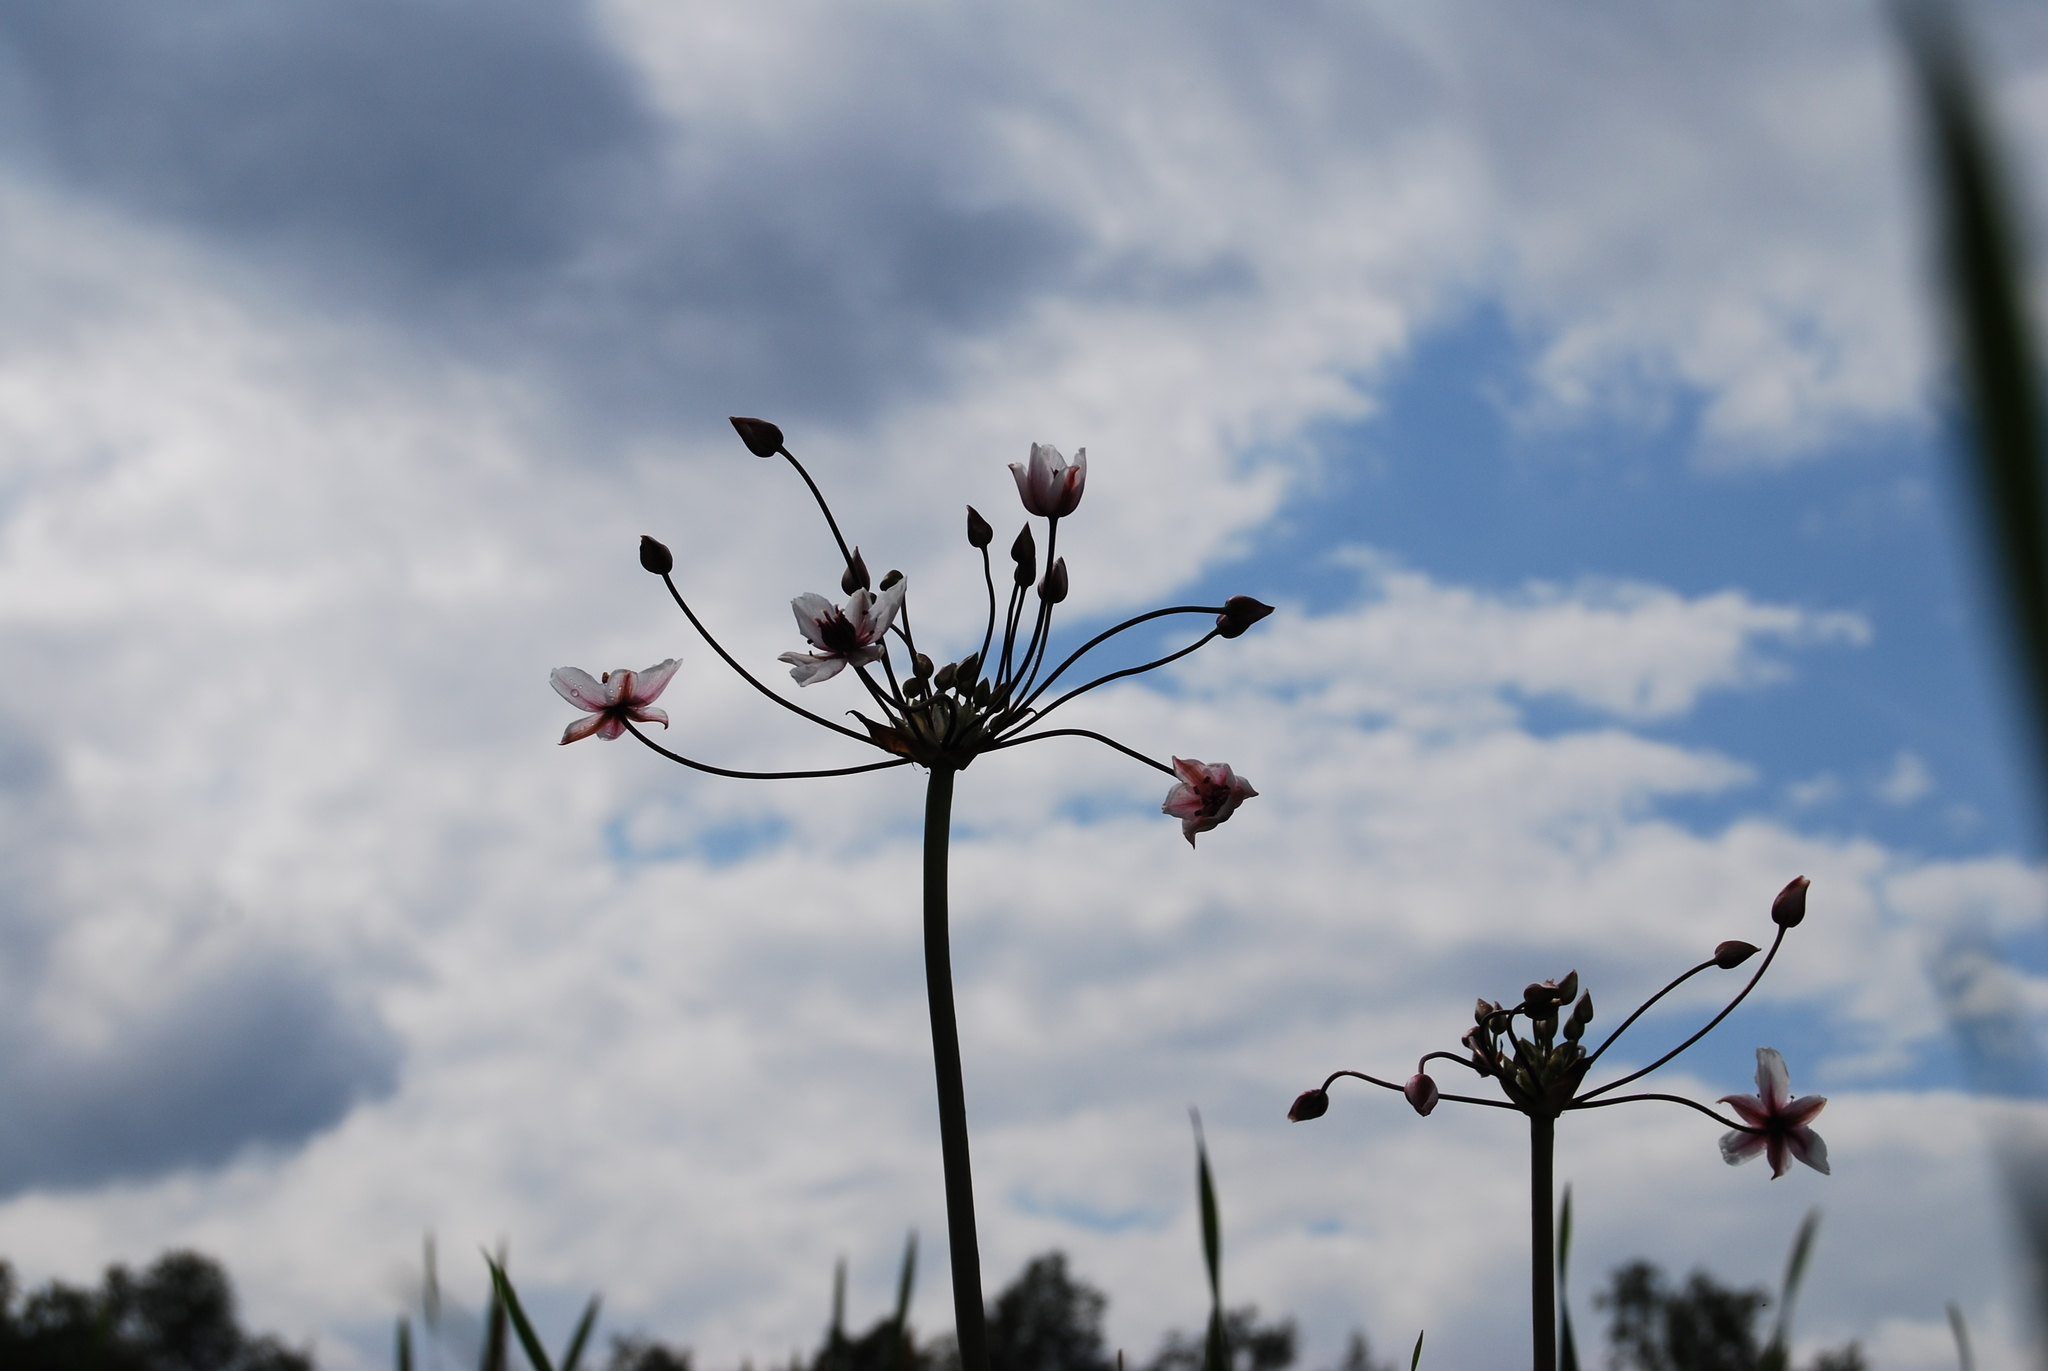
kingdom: Plantae
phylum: Tracheophyta
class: Liliopsida
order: Alismatales
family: Butomaceae
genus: Butomus
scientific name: Butomus umbellatus
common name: Flowering-rush
